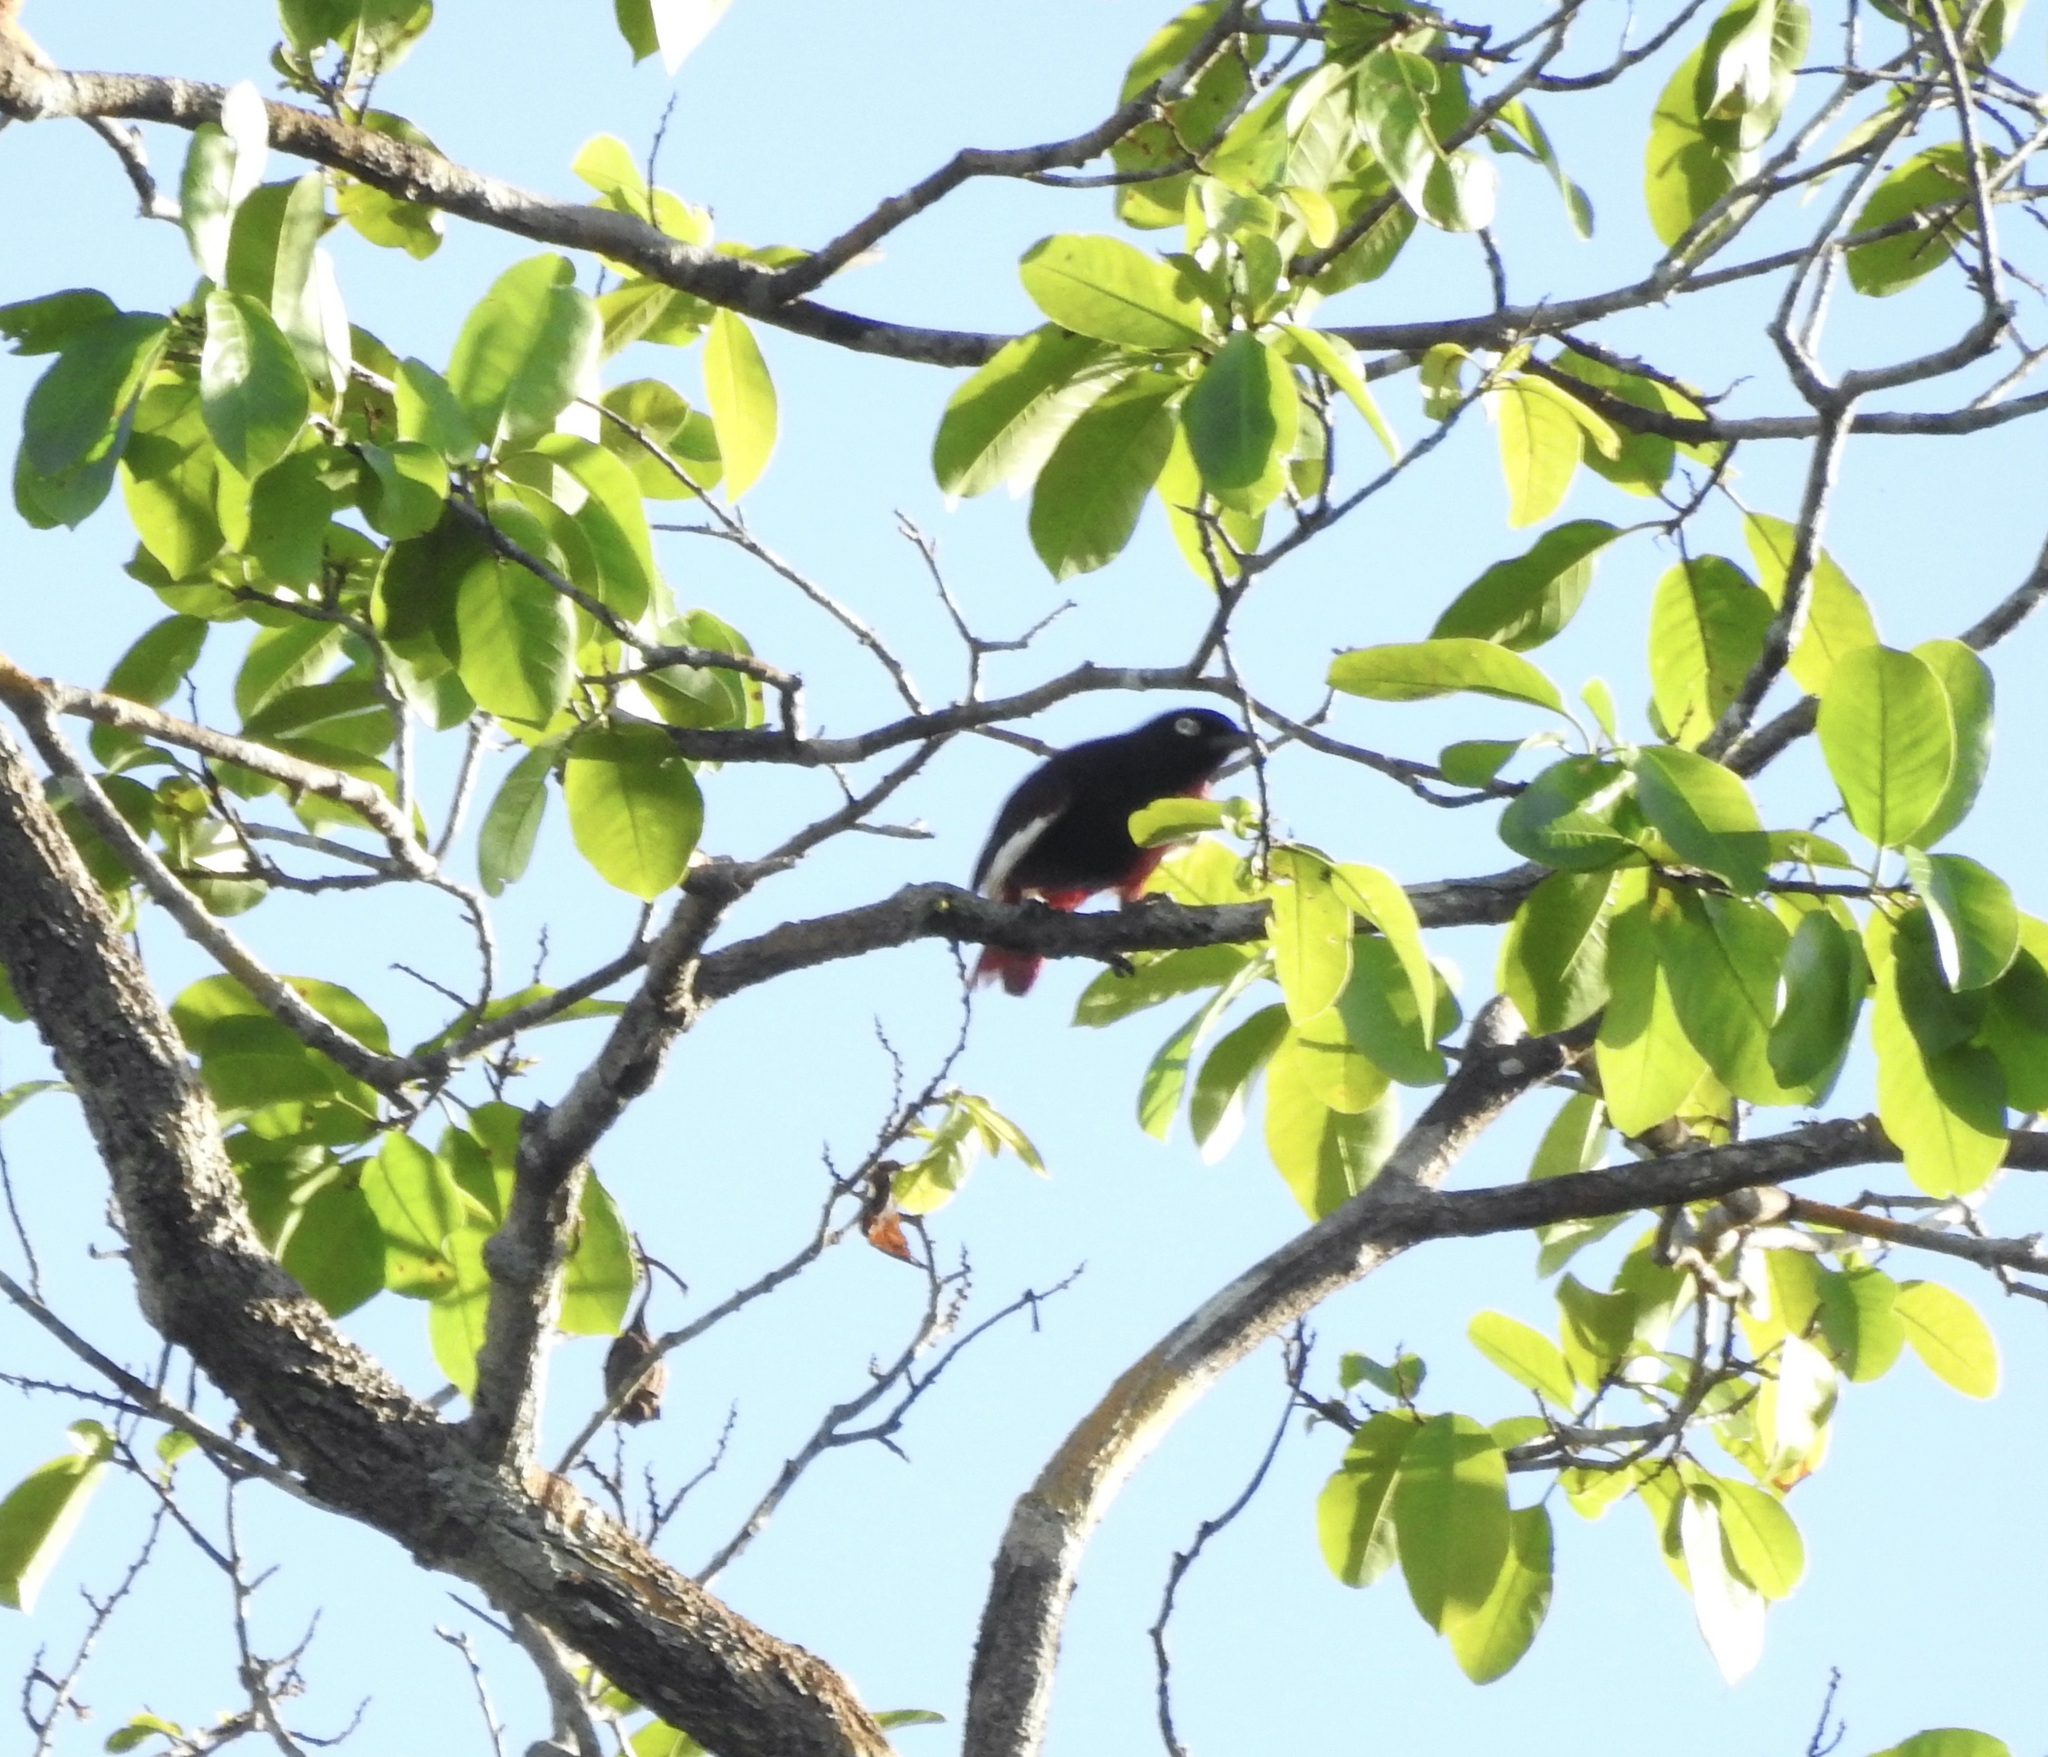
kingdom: Animalia
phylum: Chordata
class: Aves
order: Passeriformes
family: Cotingidae
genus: Xipholena
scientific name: Xipholena punicea
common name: Pompadour cotinga
